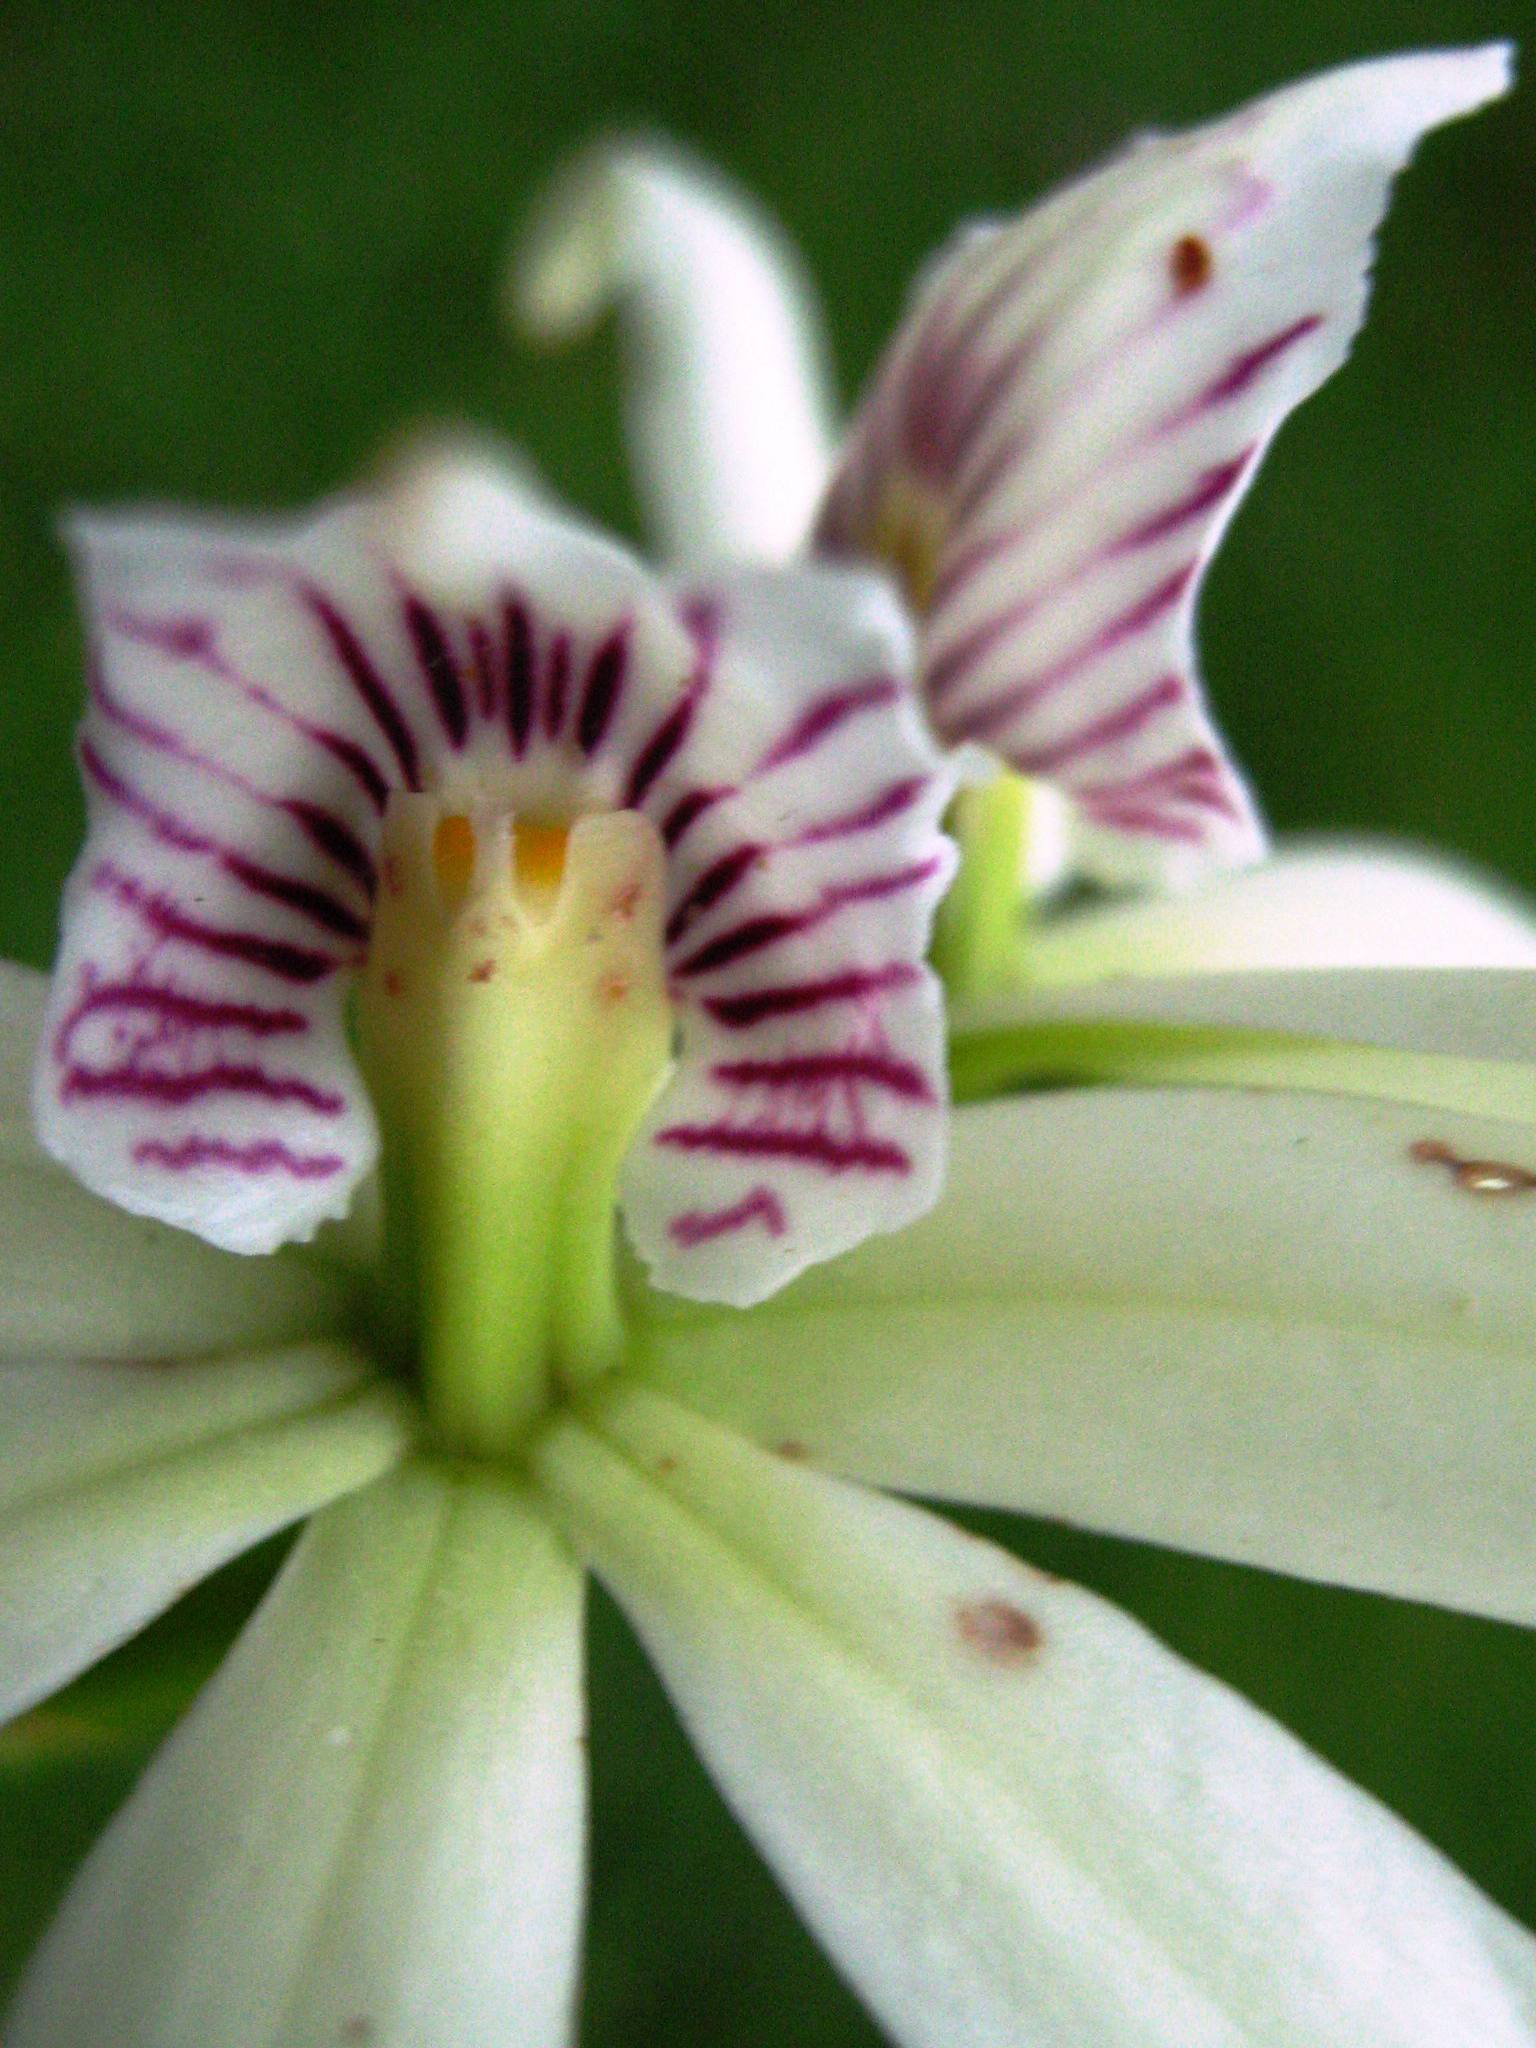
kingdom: Plantae
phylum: Tracheophyta
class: Liliopsida
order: Asparagales
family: Orchidaceae
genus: Prosthechea
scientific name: Prosthechea baculus
